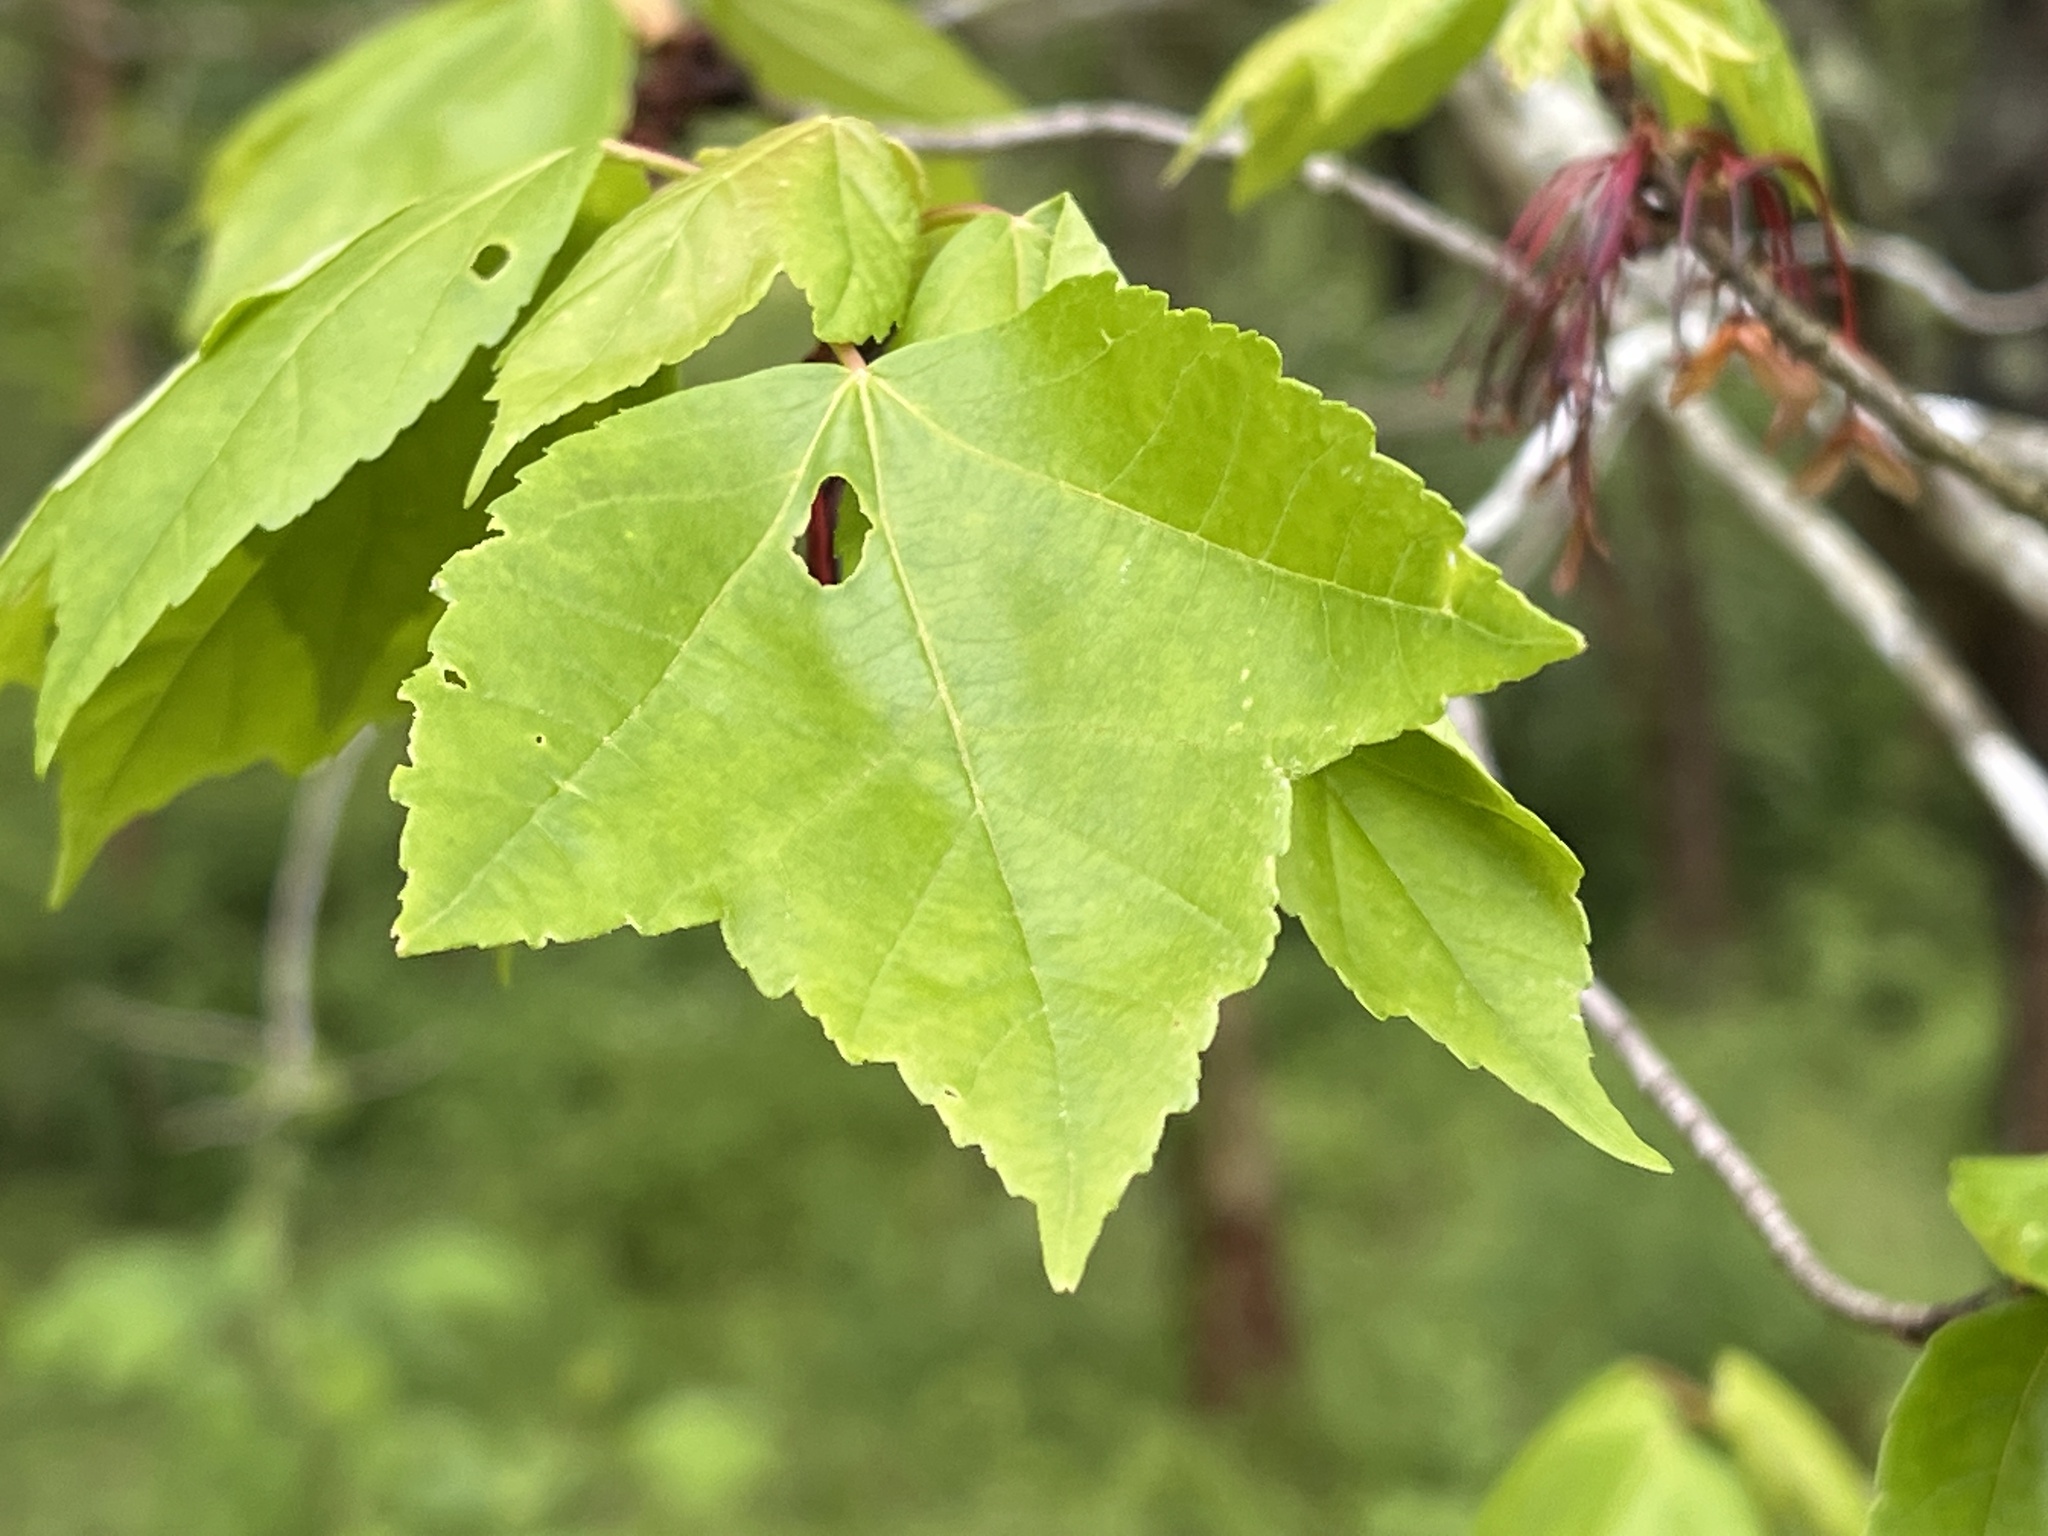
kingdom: Plantae
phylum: Tracheophyta
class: Magnoliopsida
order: Sapindales
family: Sapindaceae
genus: Acer
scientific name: Acer rubrum
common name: Red maple
